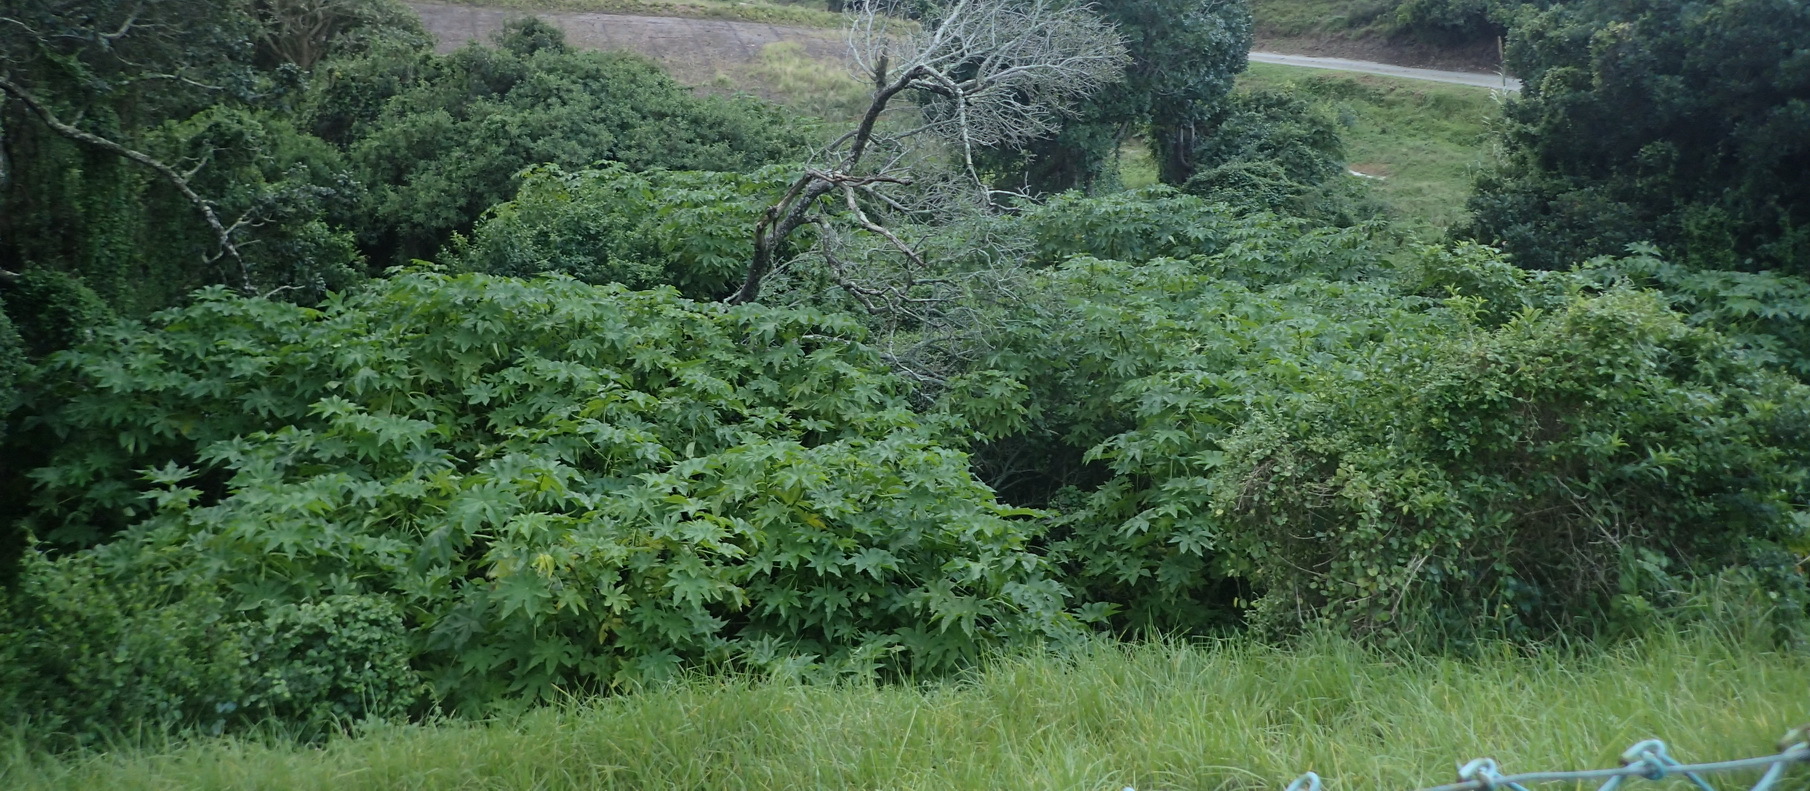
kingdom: Plantae
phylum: Tracheophyta
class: Magnoliopsida
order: Malpighiales
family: Euphorbiaceae
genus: Ricinus
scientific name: Ricinus communis
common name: Castor-oil-plant
